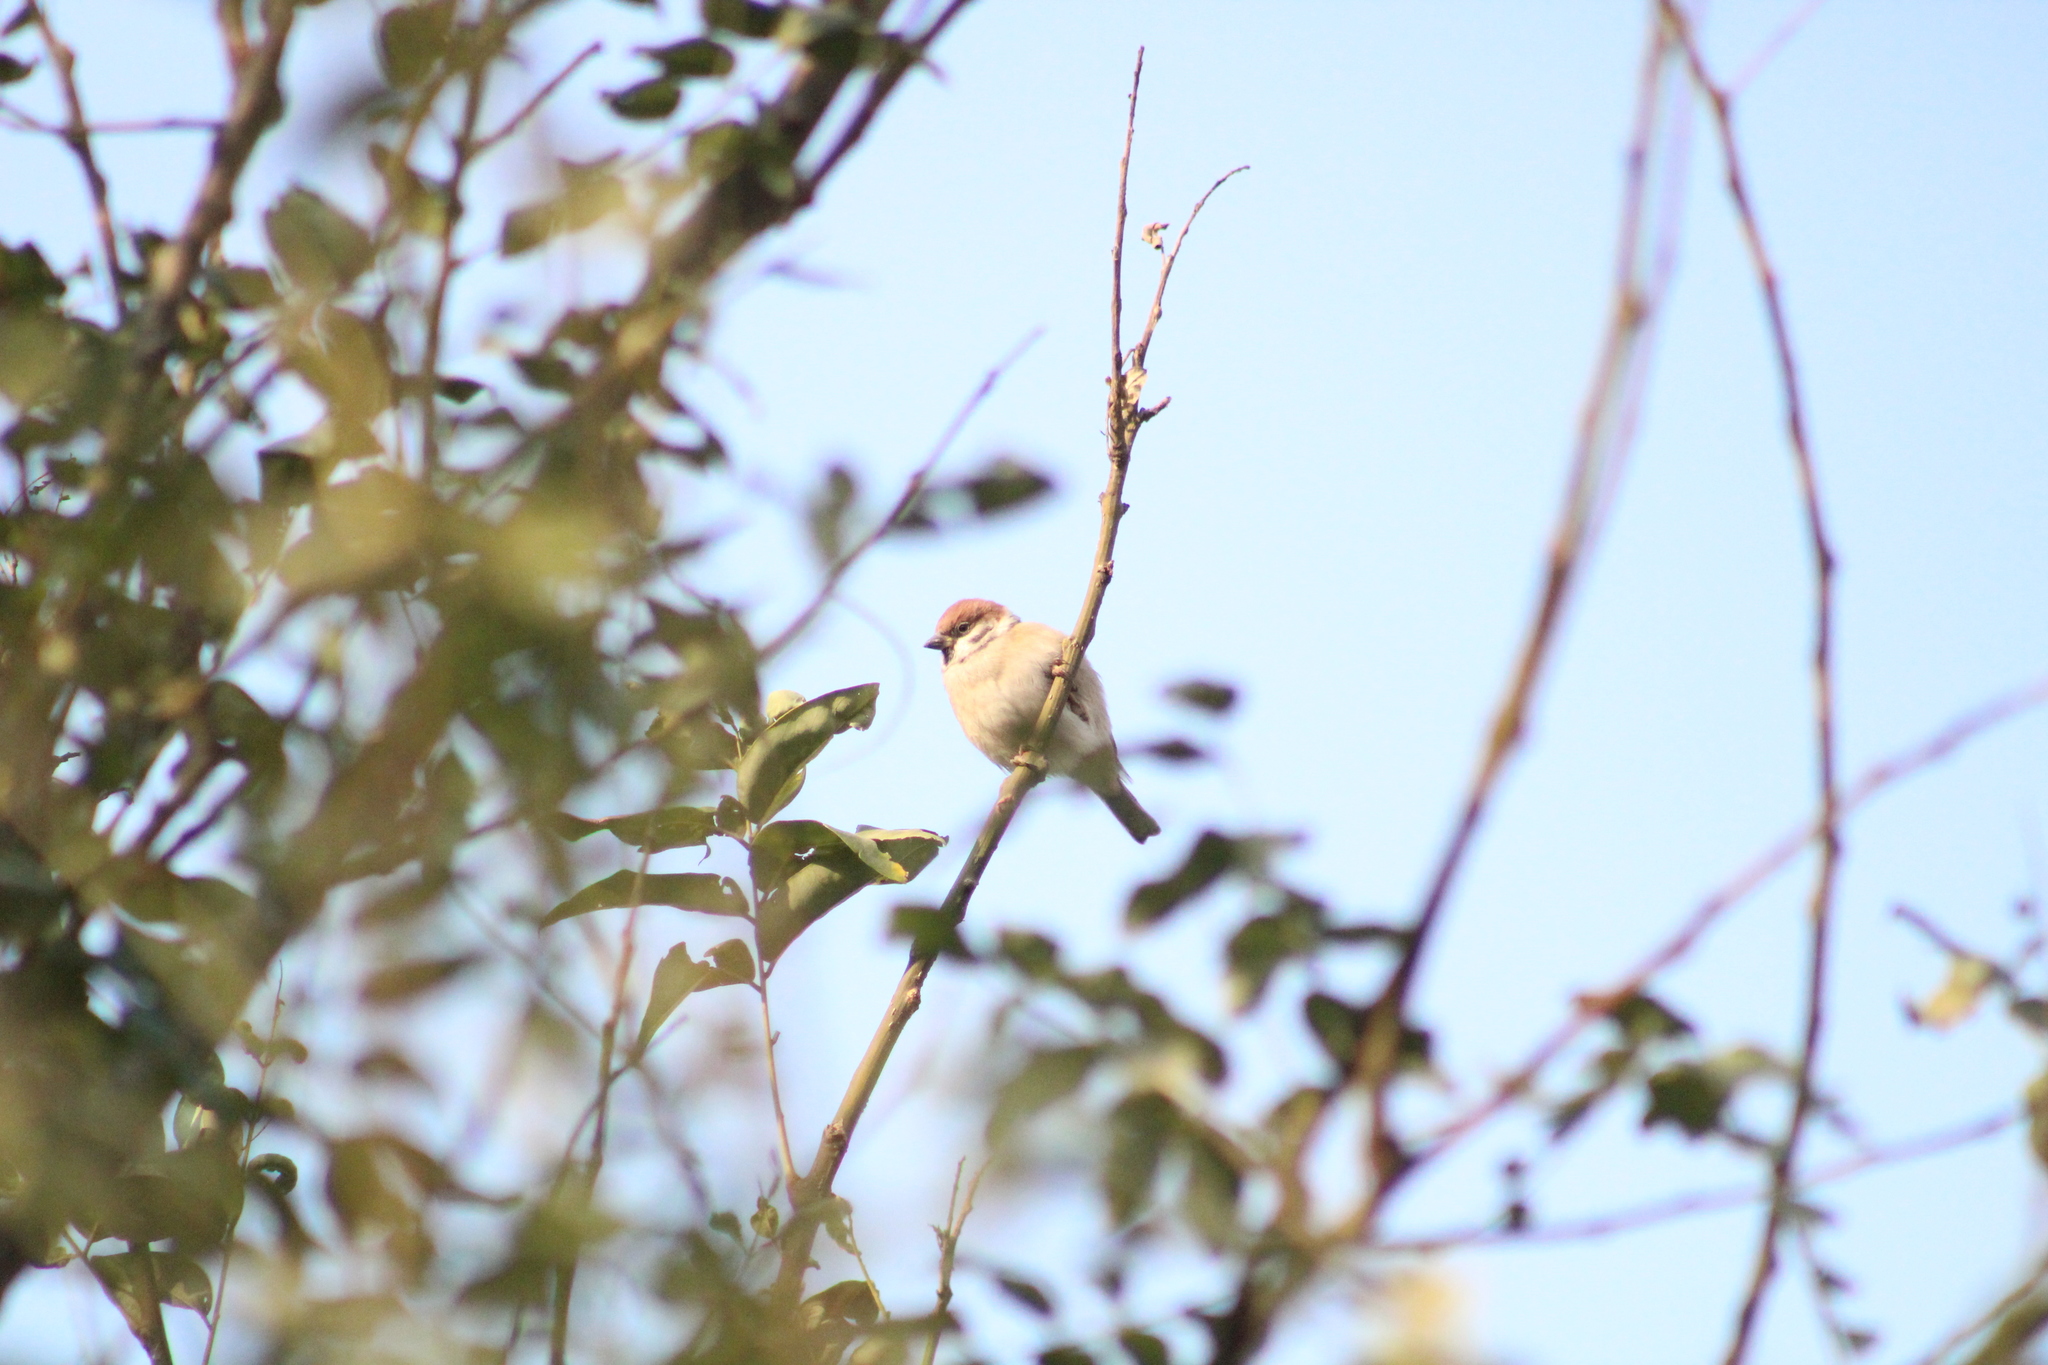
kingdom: Animalia
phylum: Chordata
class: Aves
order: Passeriformes
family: Passeridae
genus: Passer
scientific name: Passer montanus
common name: Eurasian tree sparrow
